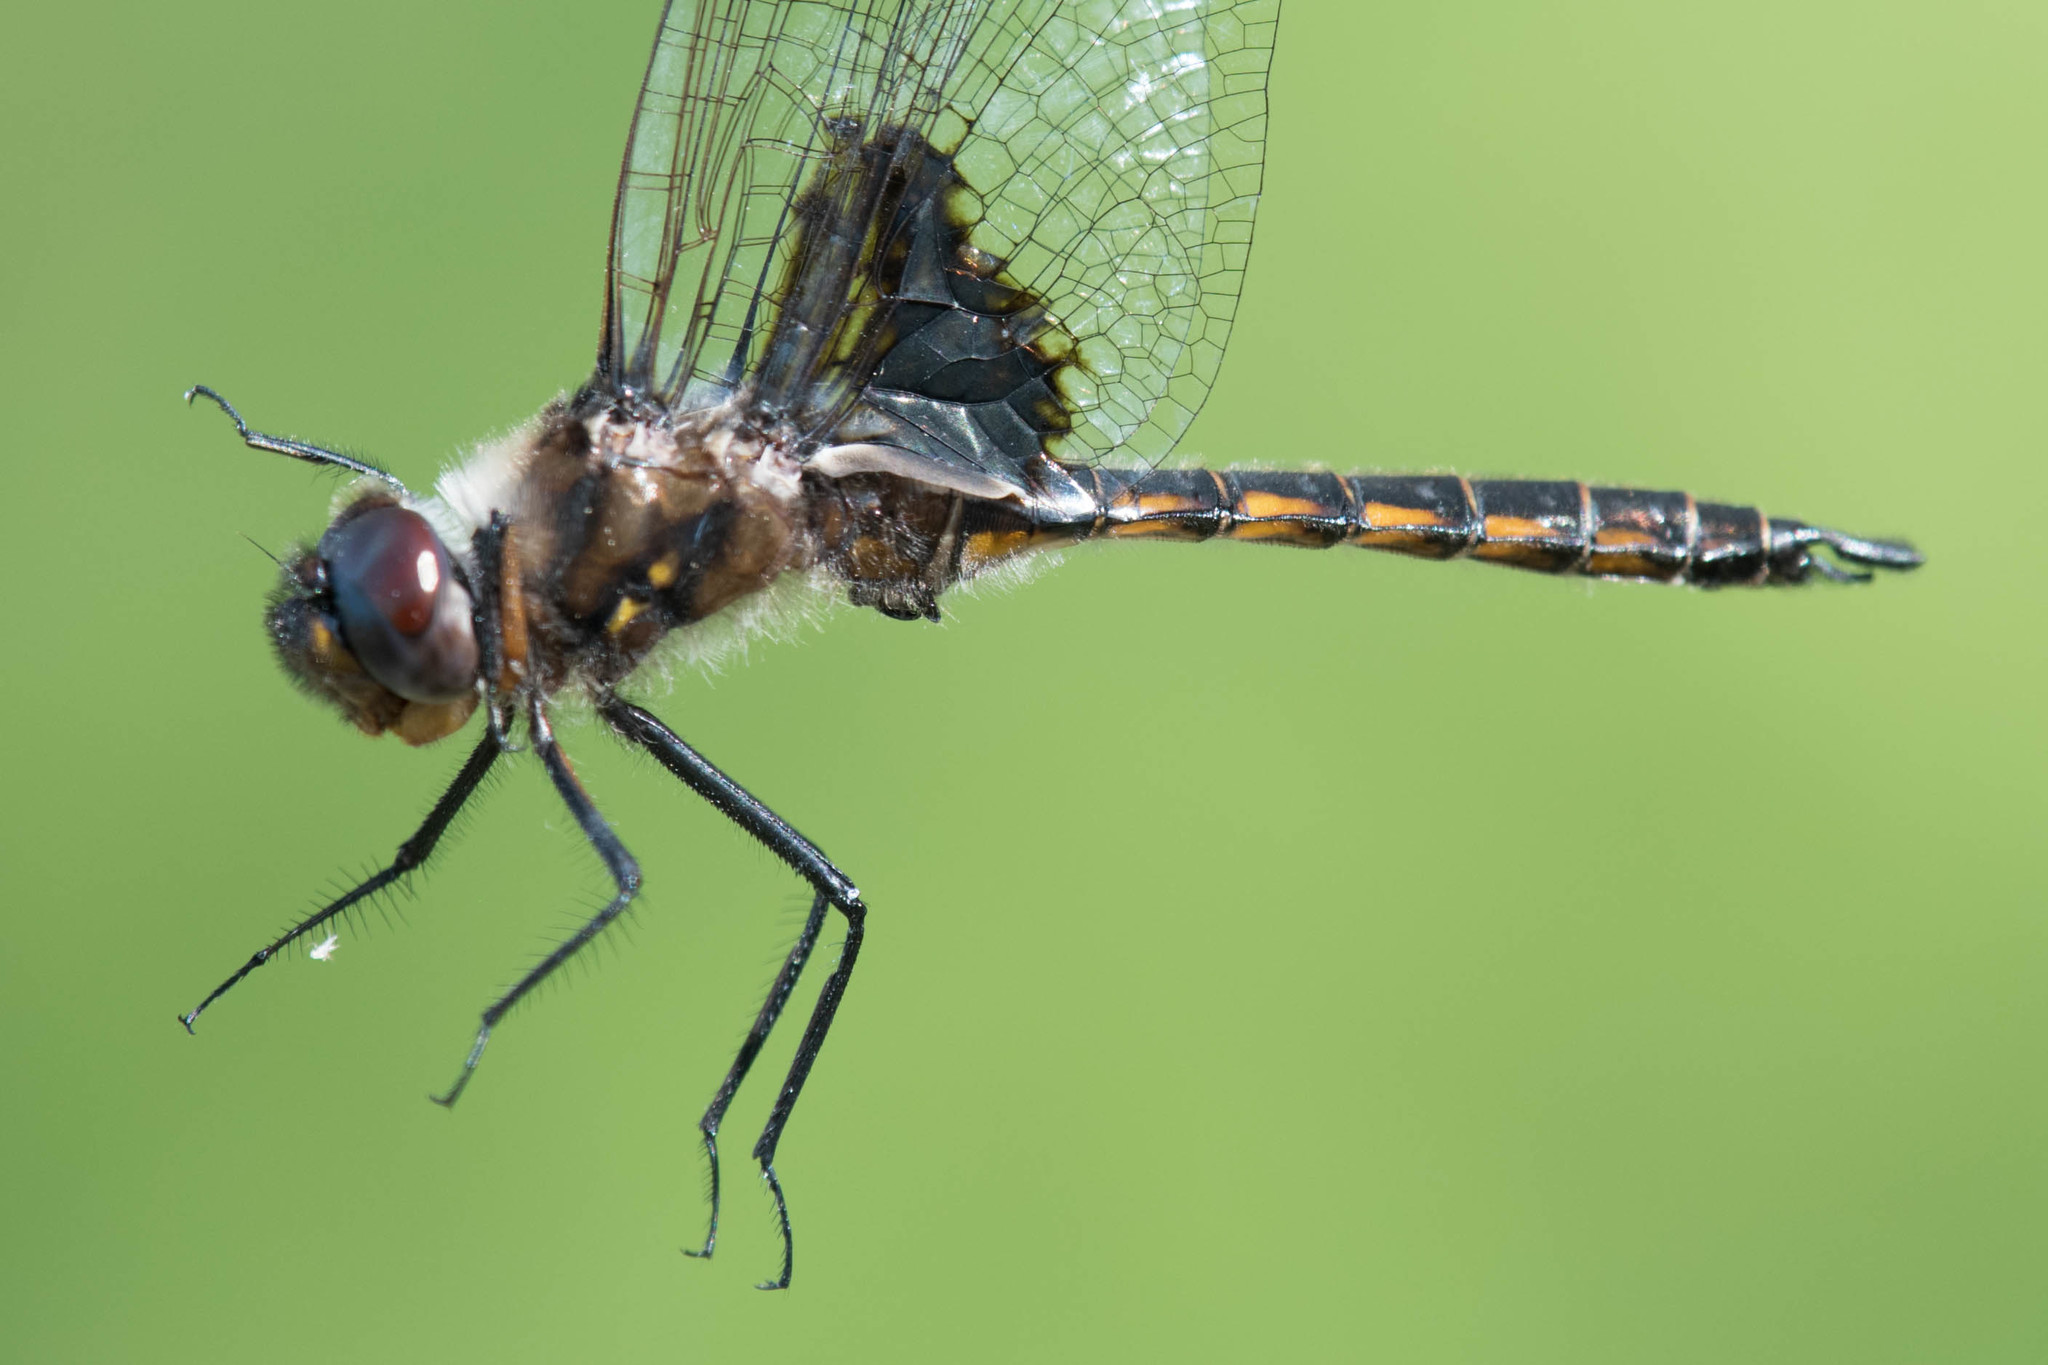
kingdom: Animalia
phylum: Arthropoda
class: Insecta
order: Odonata
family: Corduliidae
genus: Epitheca
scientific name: Epitheca cynosura
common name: Common baskettail
